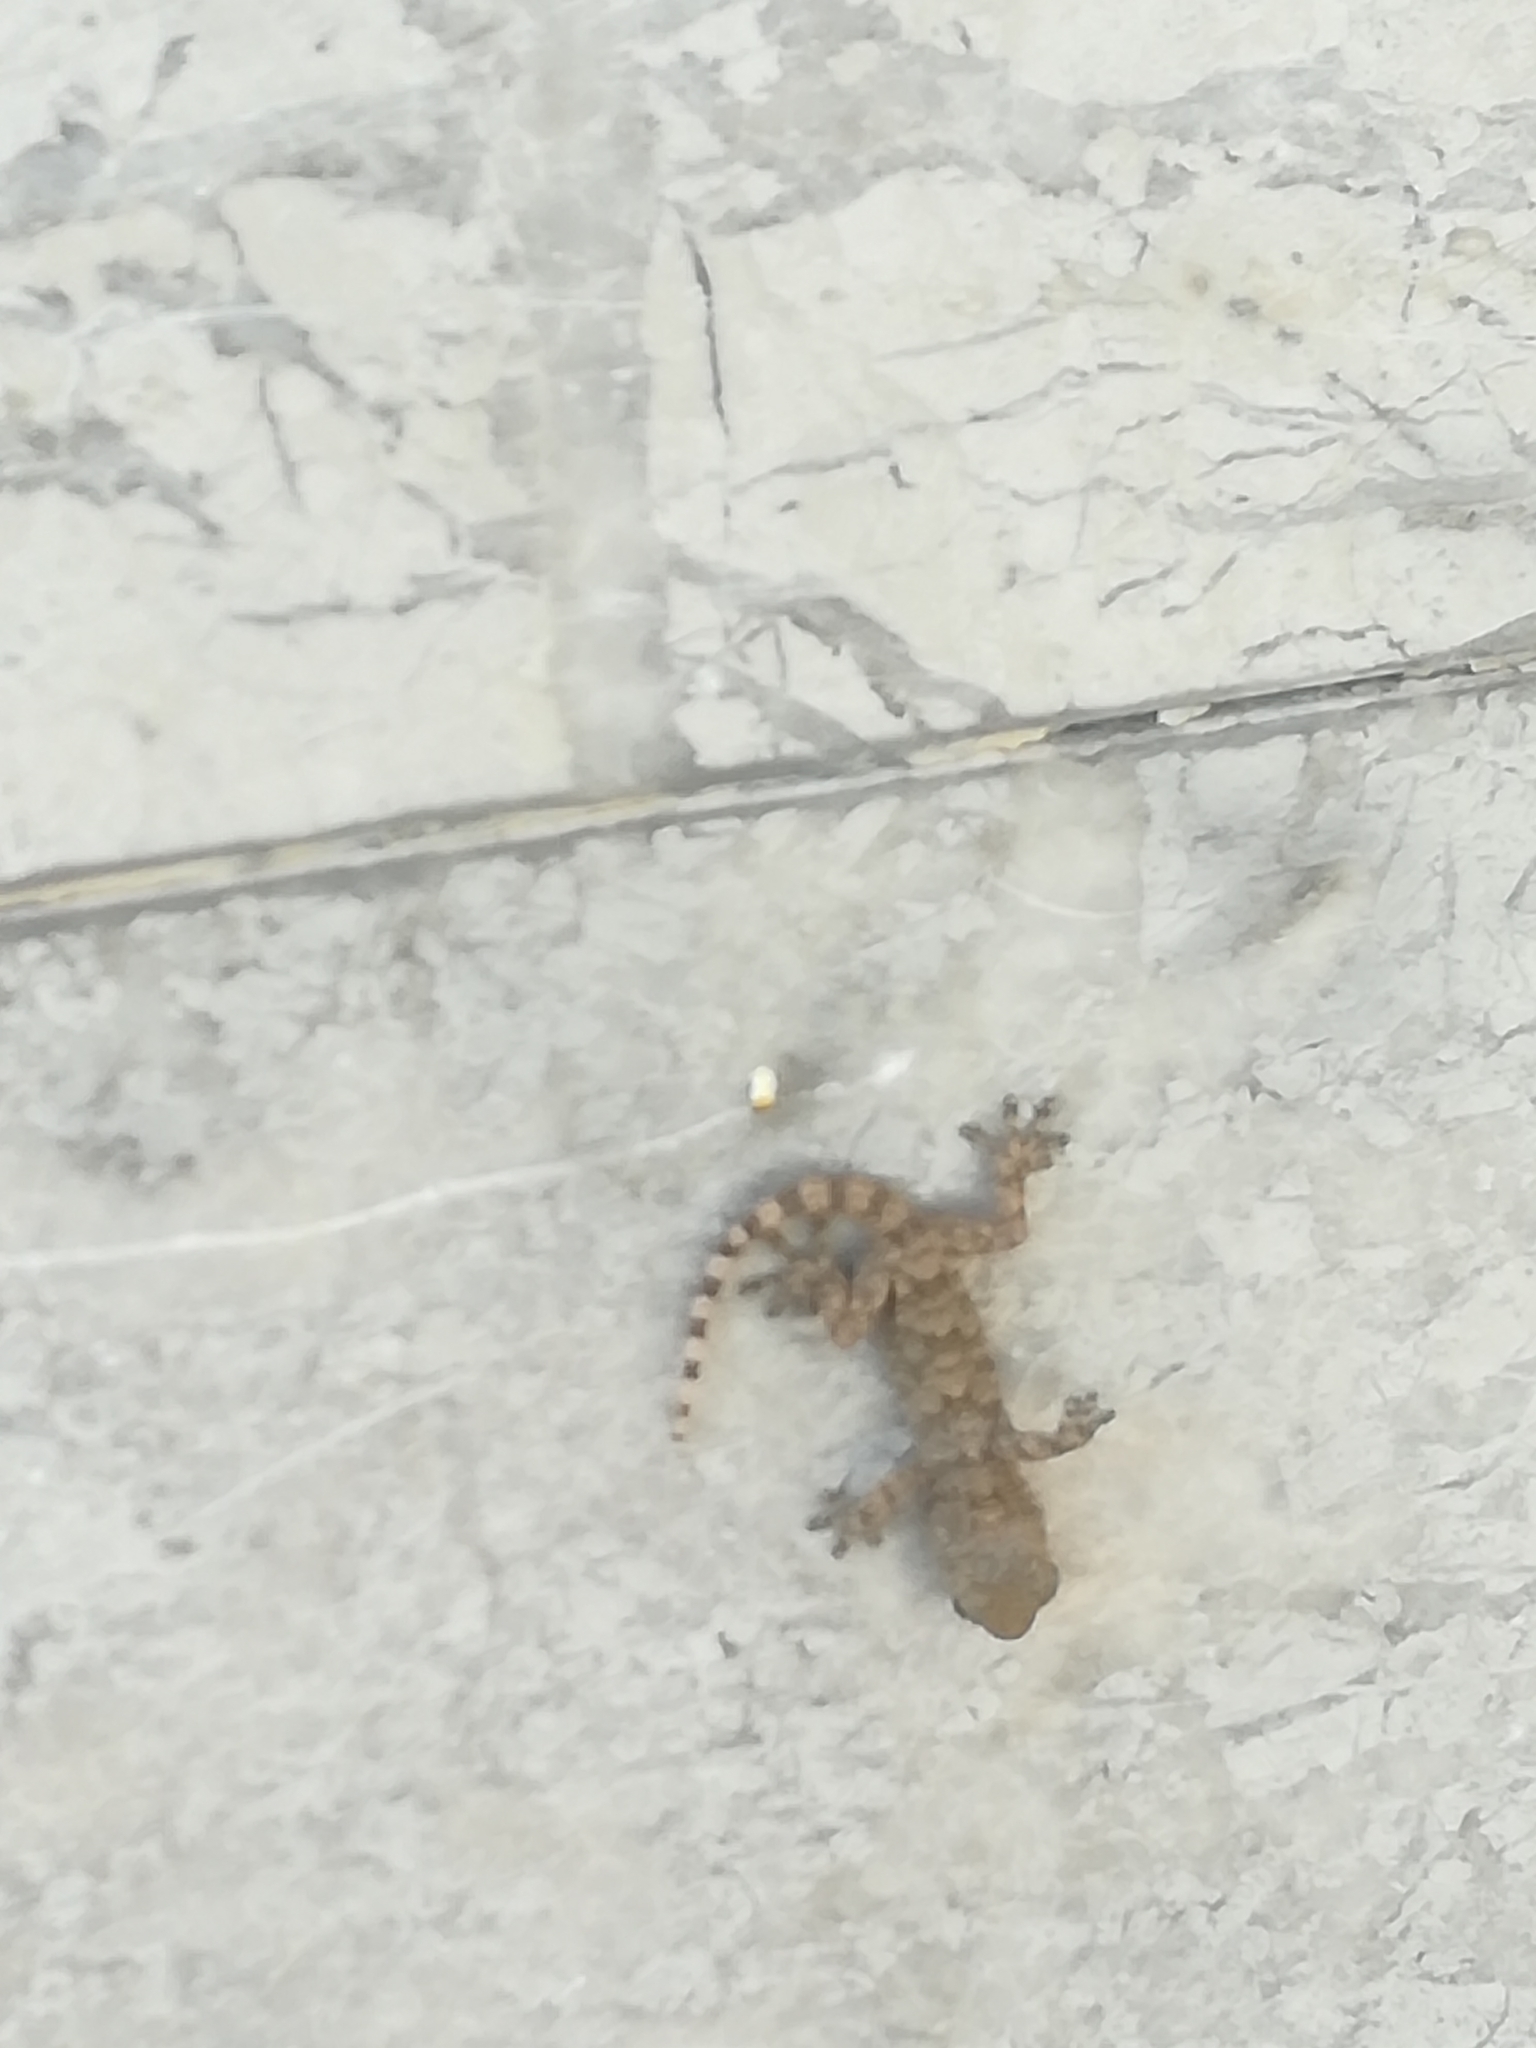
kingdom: Animalia
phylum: Chordata
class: Squamata
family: Phyllodactylidae
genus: Tarentola
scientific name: Tarentola mauritanica
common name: Moorish gecko
